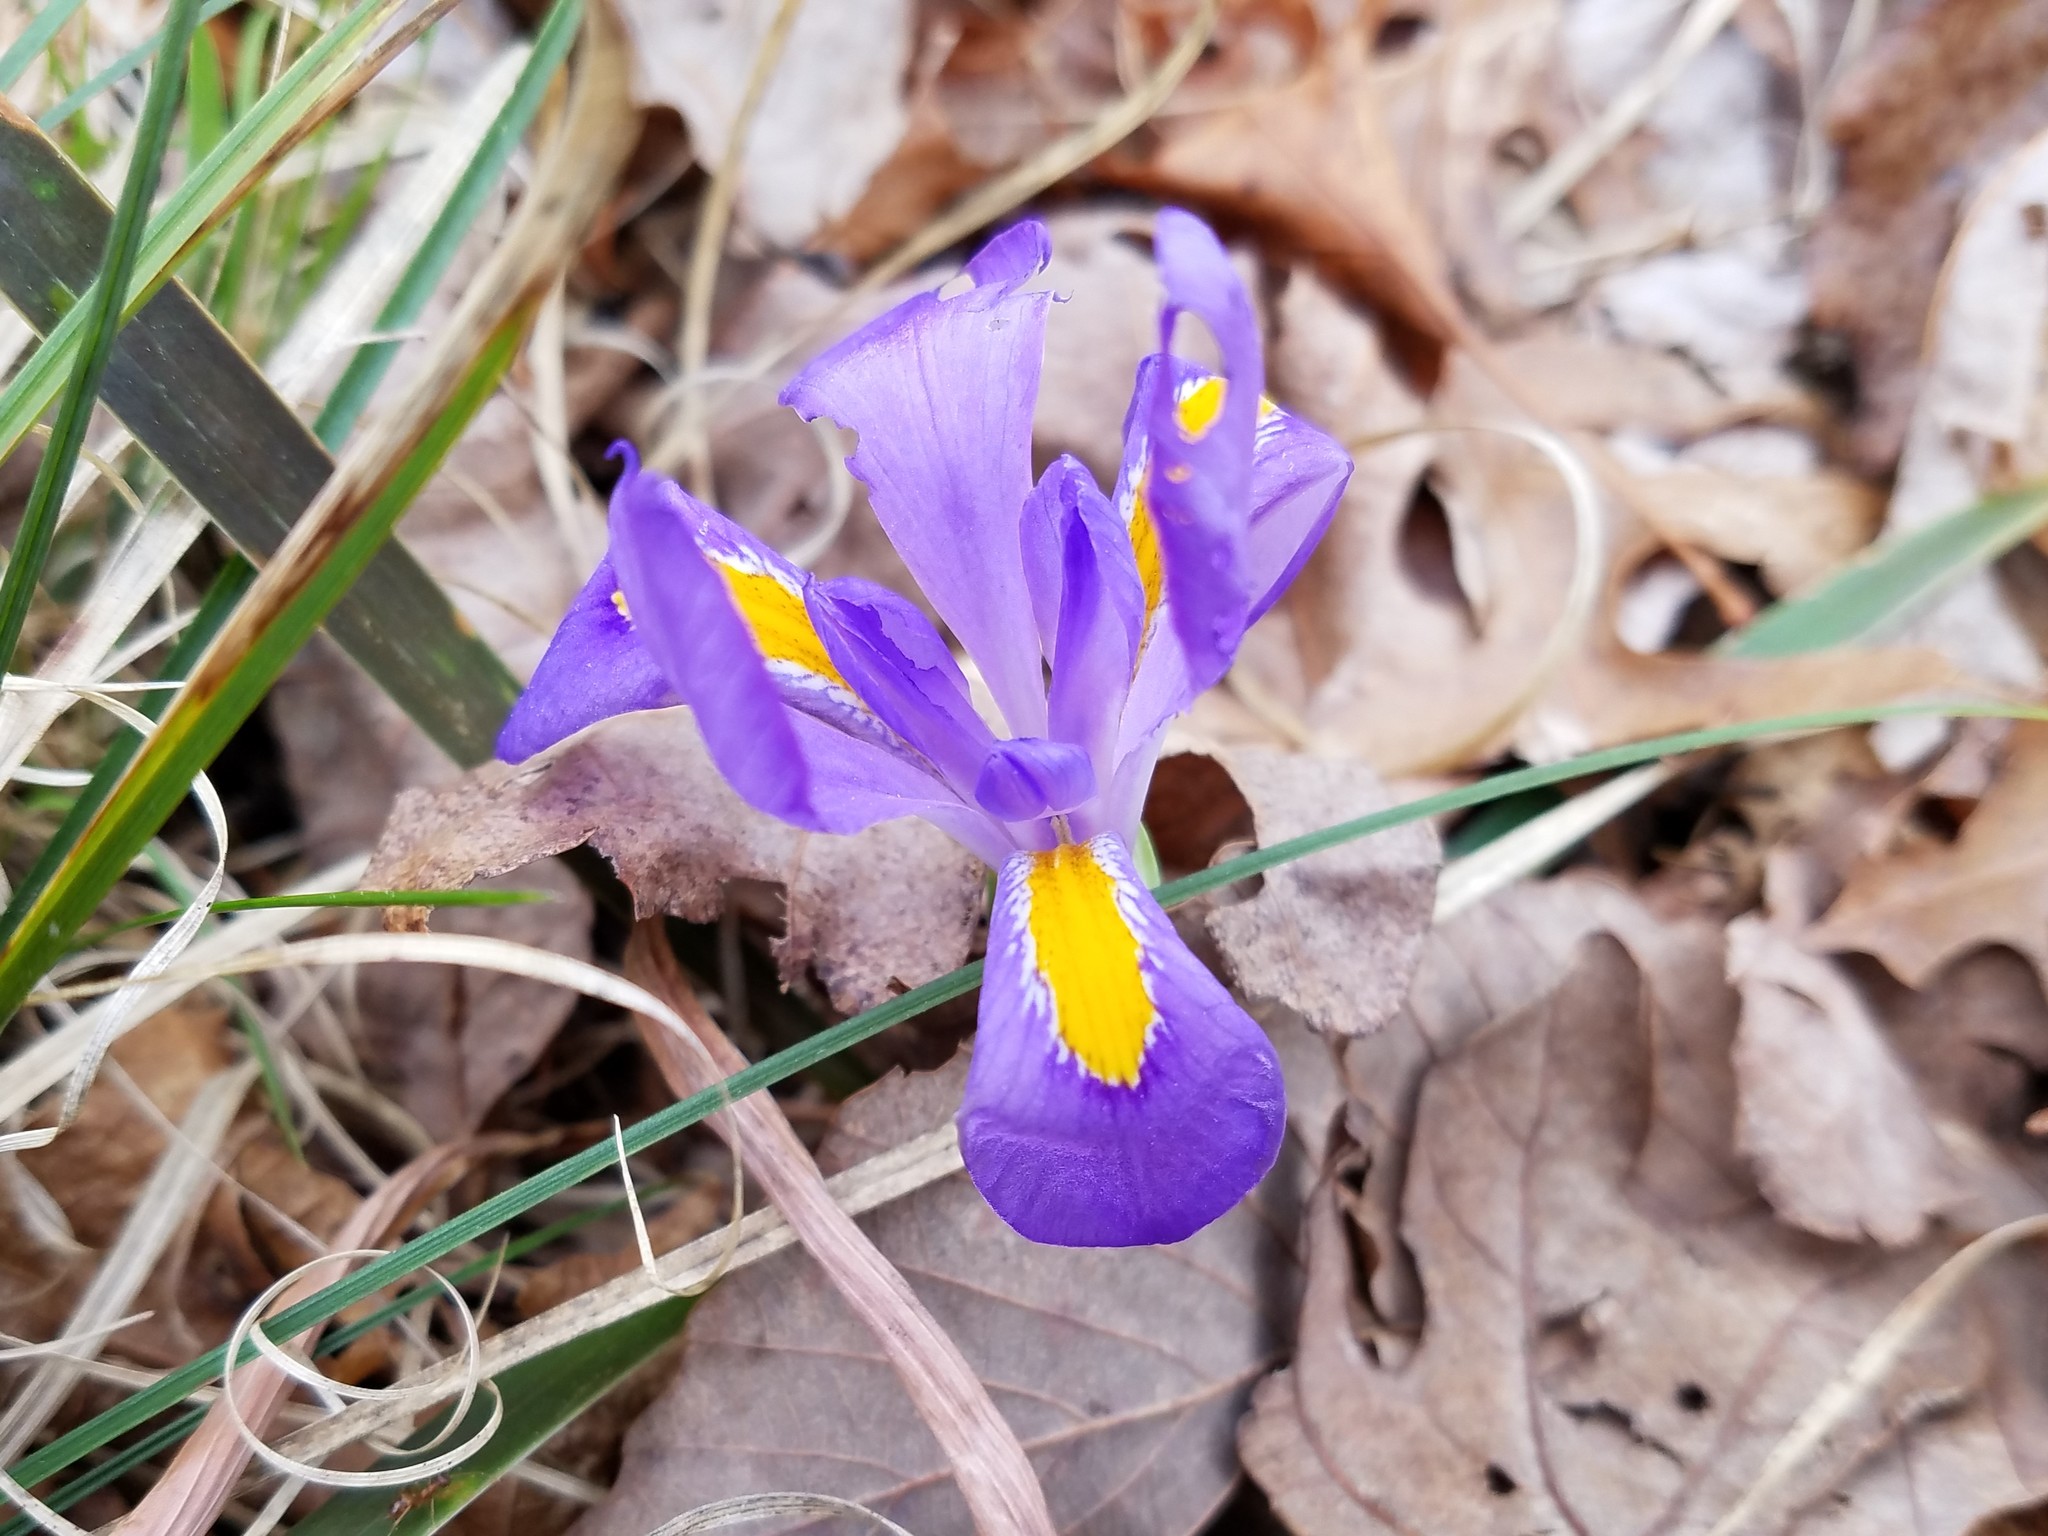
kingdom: Plantae
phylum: Tracheophyta
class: Liliopsida
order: Asparagales
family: Iridaceae
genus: Iris
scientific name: Iris verna
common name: Dwarf iris
